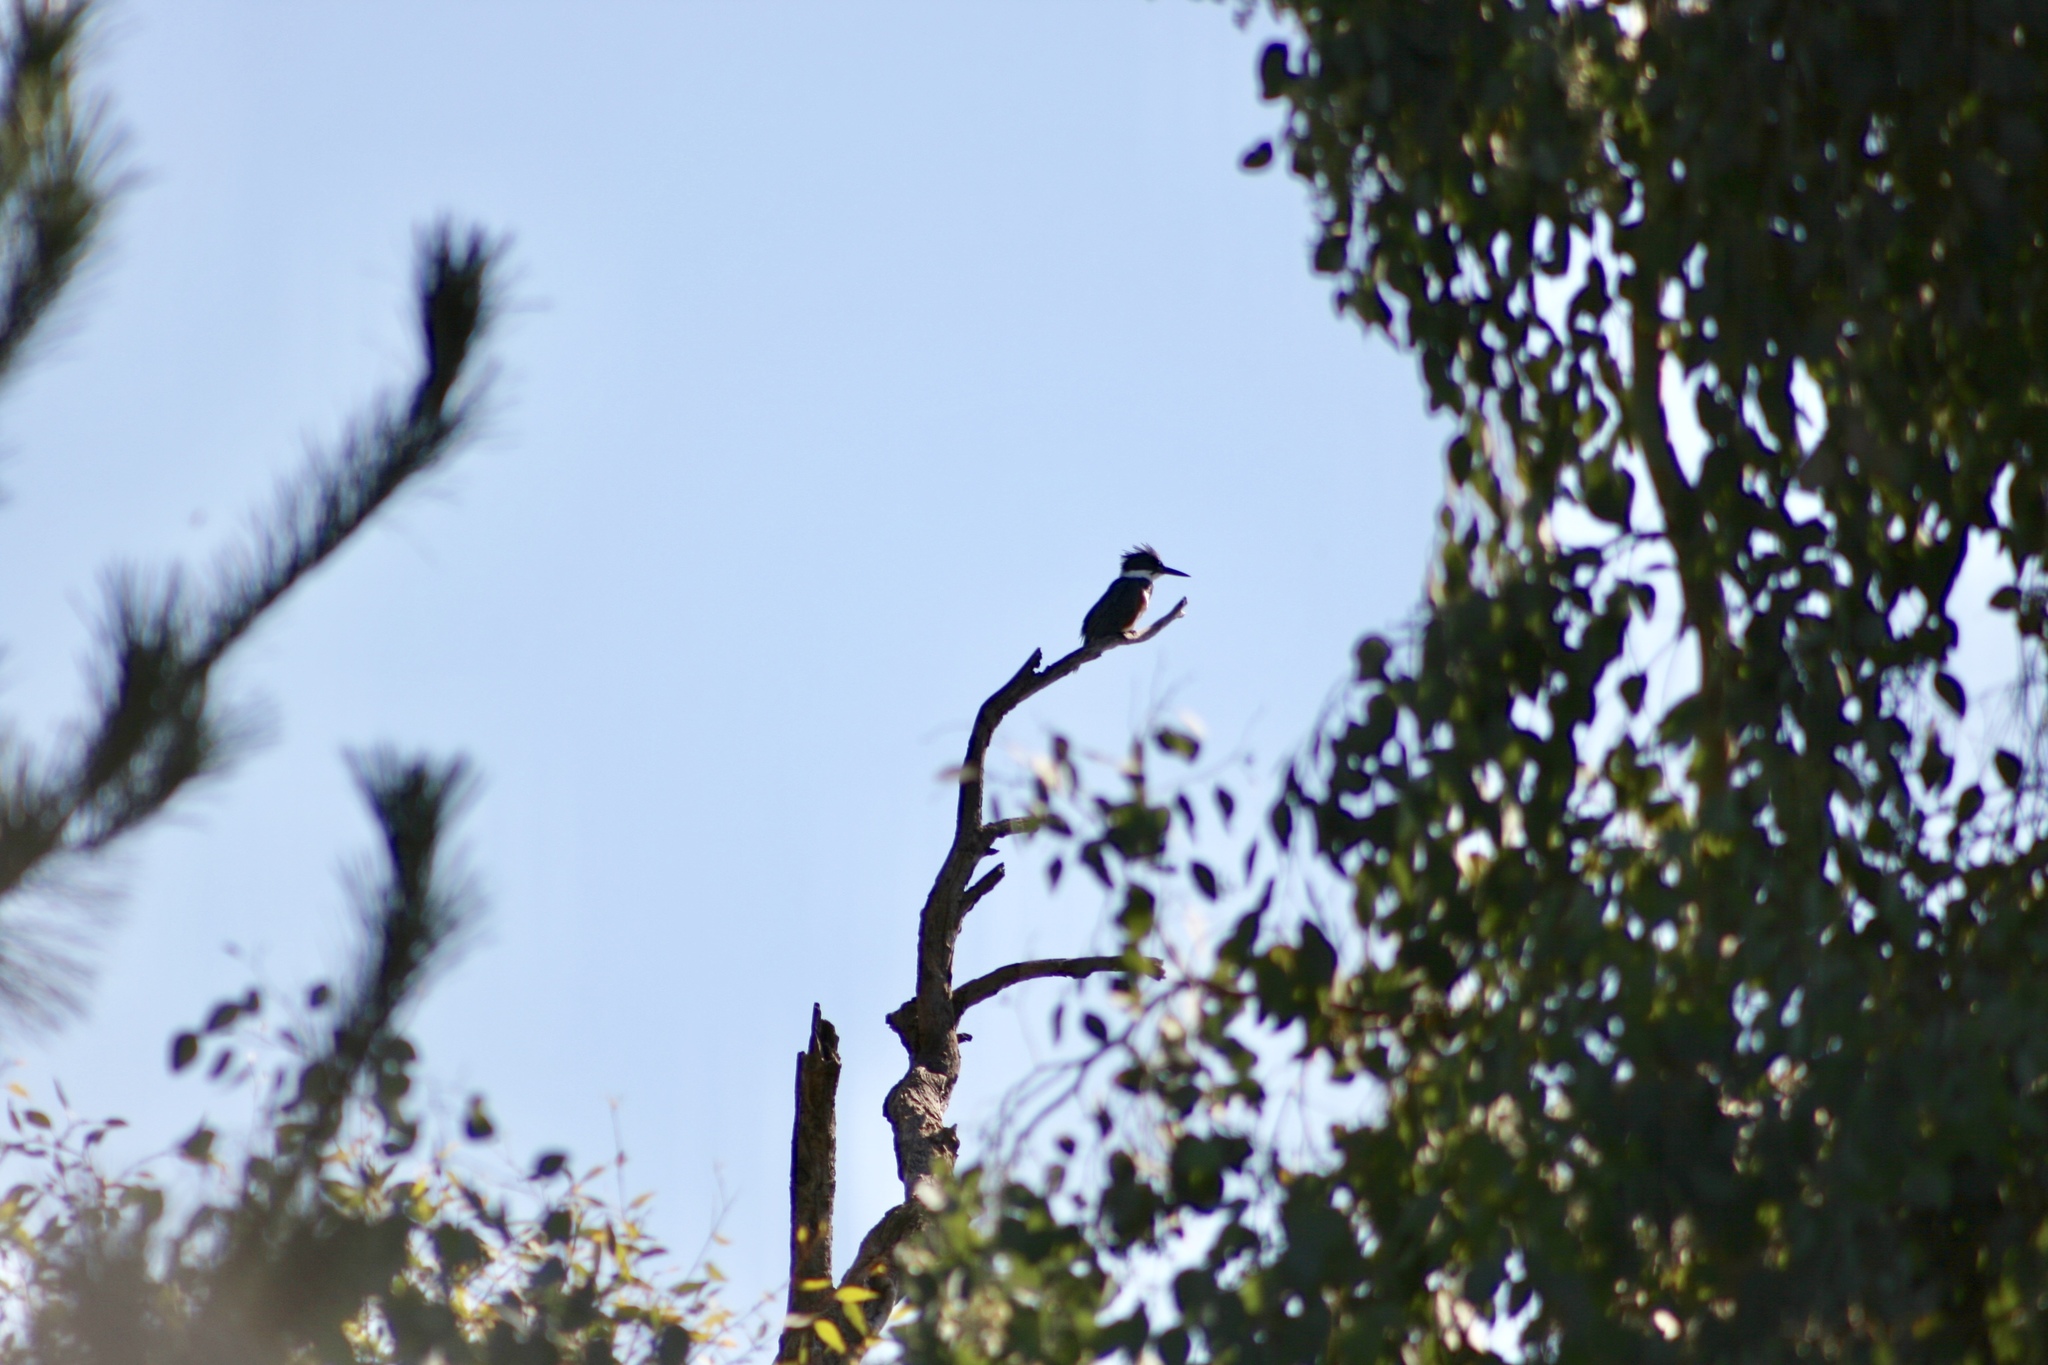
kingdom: Animalia
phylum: Chordata
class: Aves
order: Coraciiformes
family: Alcedinidae
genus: Megaceryle
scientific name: Megaceryle alcyon
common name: Belted kingfisher
